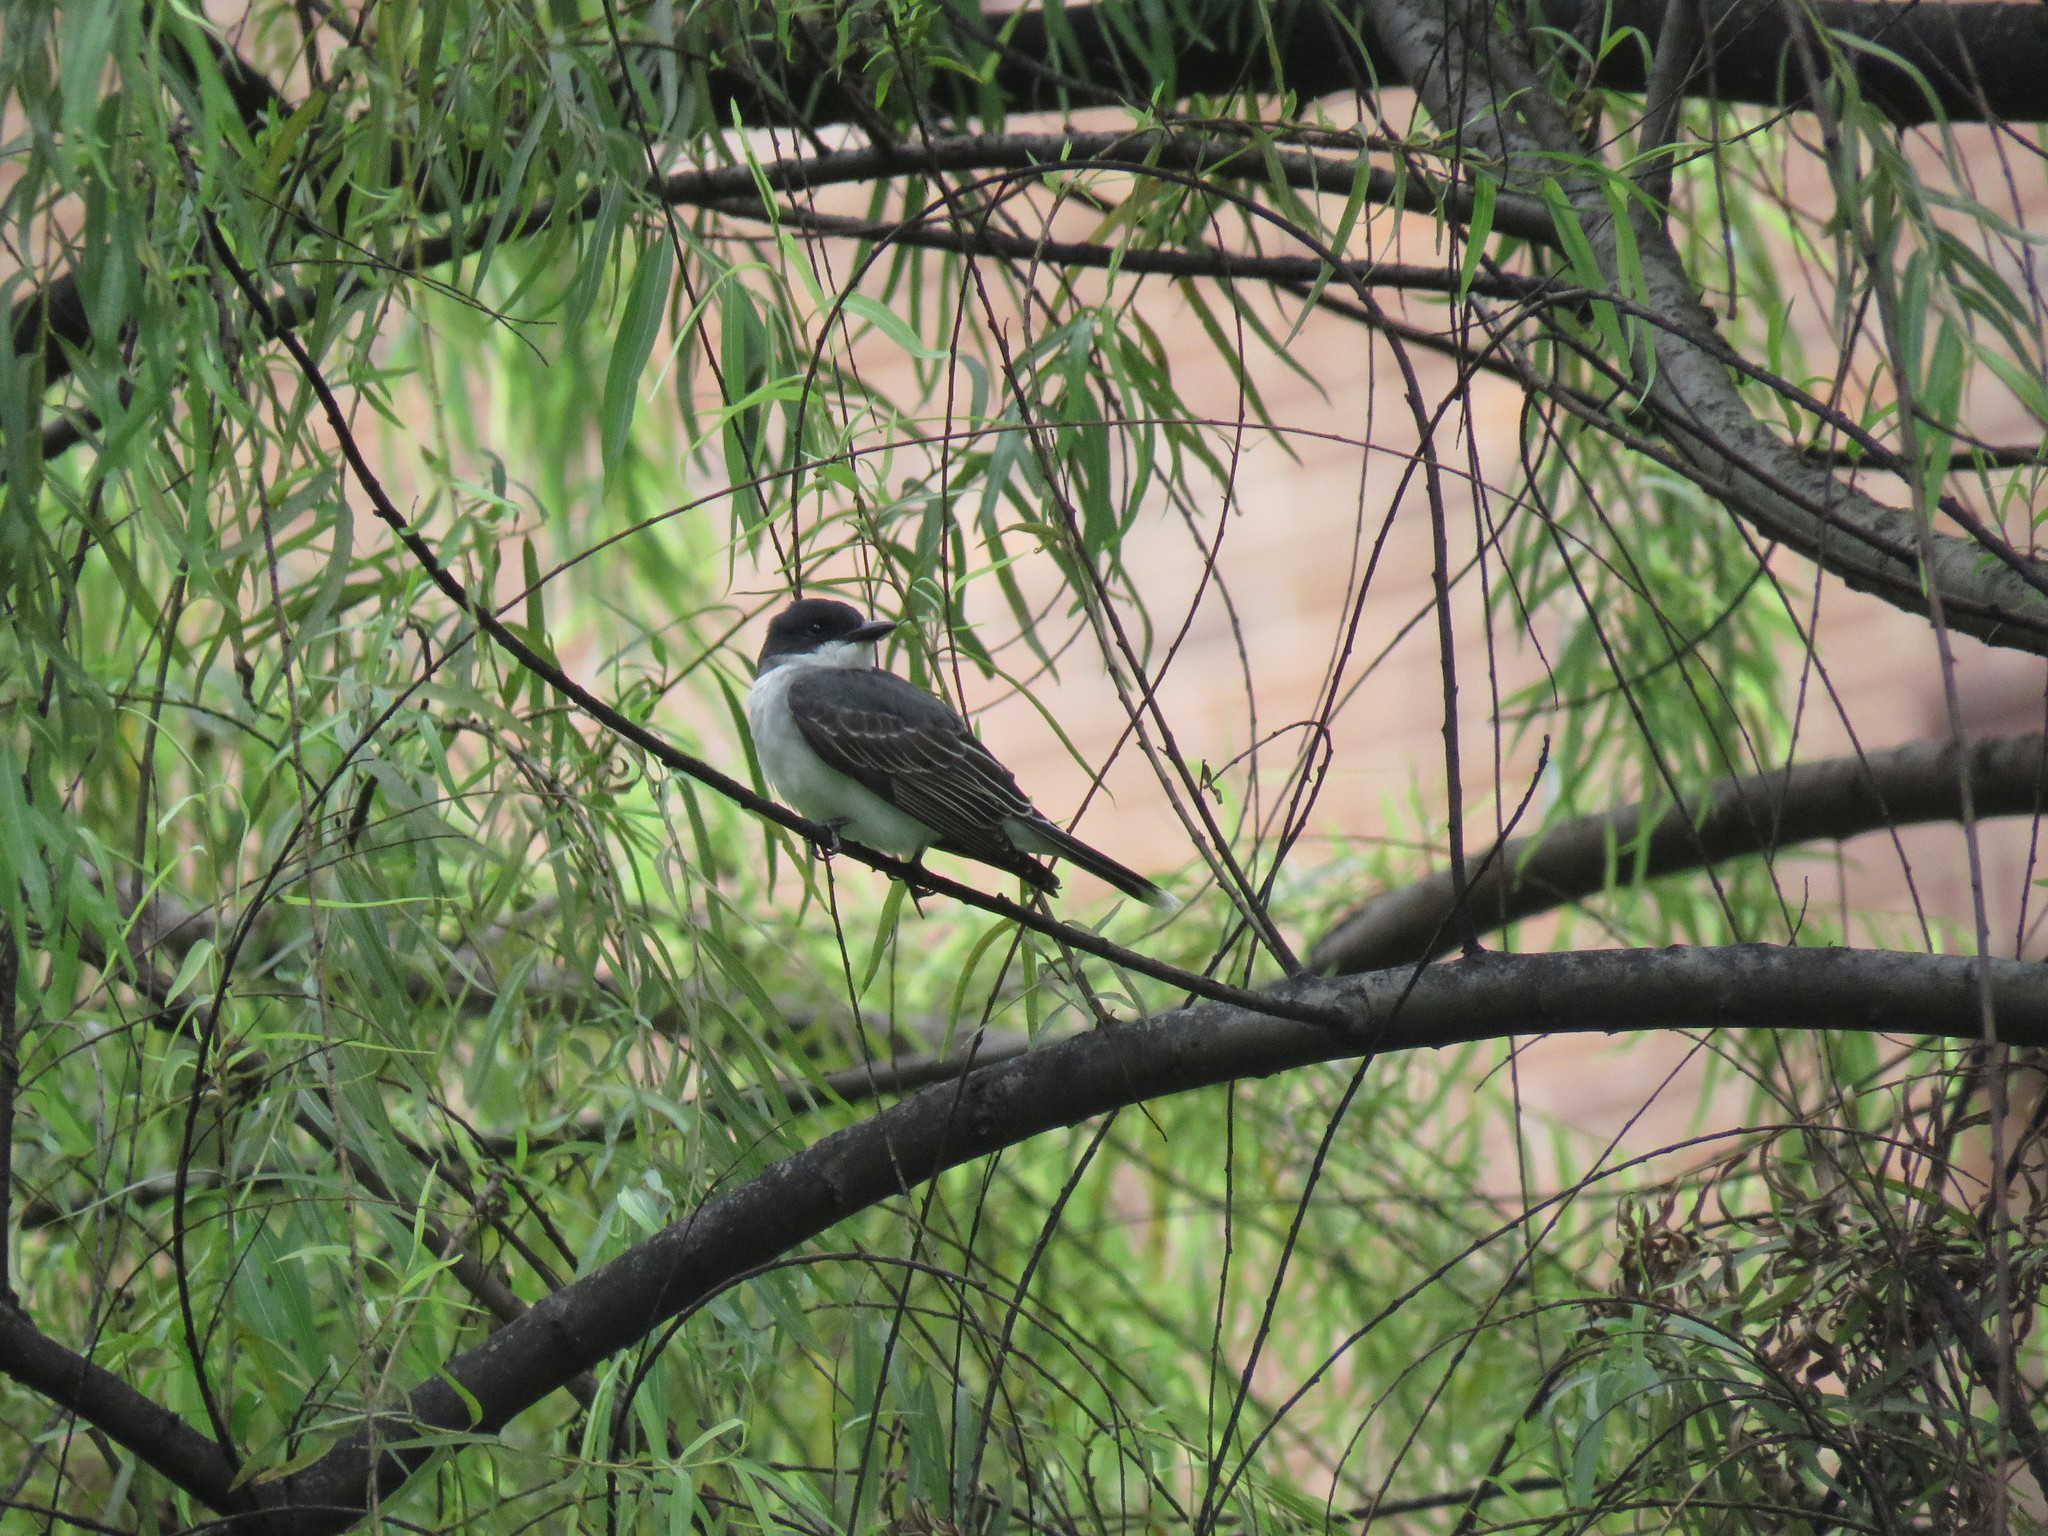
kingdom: Animalia
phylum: Chordata
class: Aves
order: Passeriformes
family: Tyrannidae
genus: Tyrannus
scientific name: Tyrannus tyrannus
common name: Eastern kingbird
